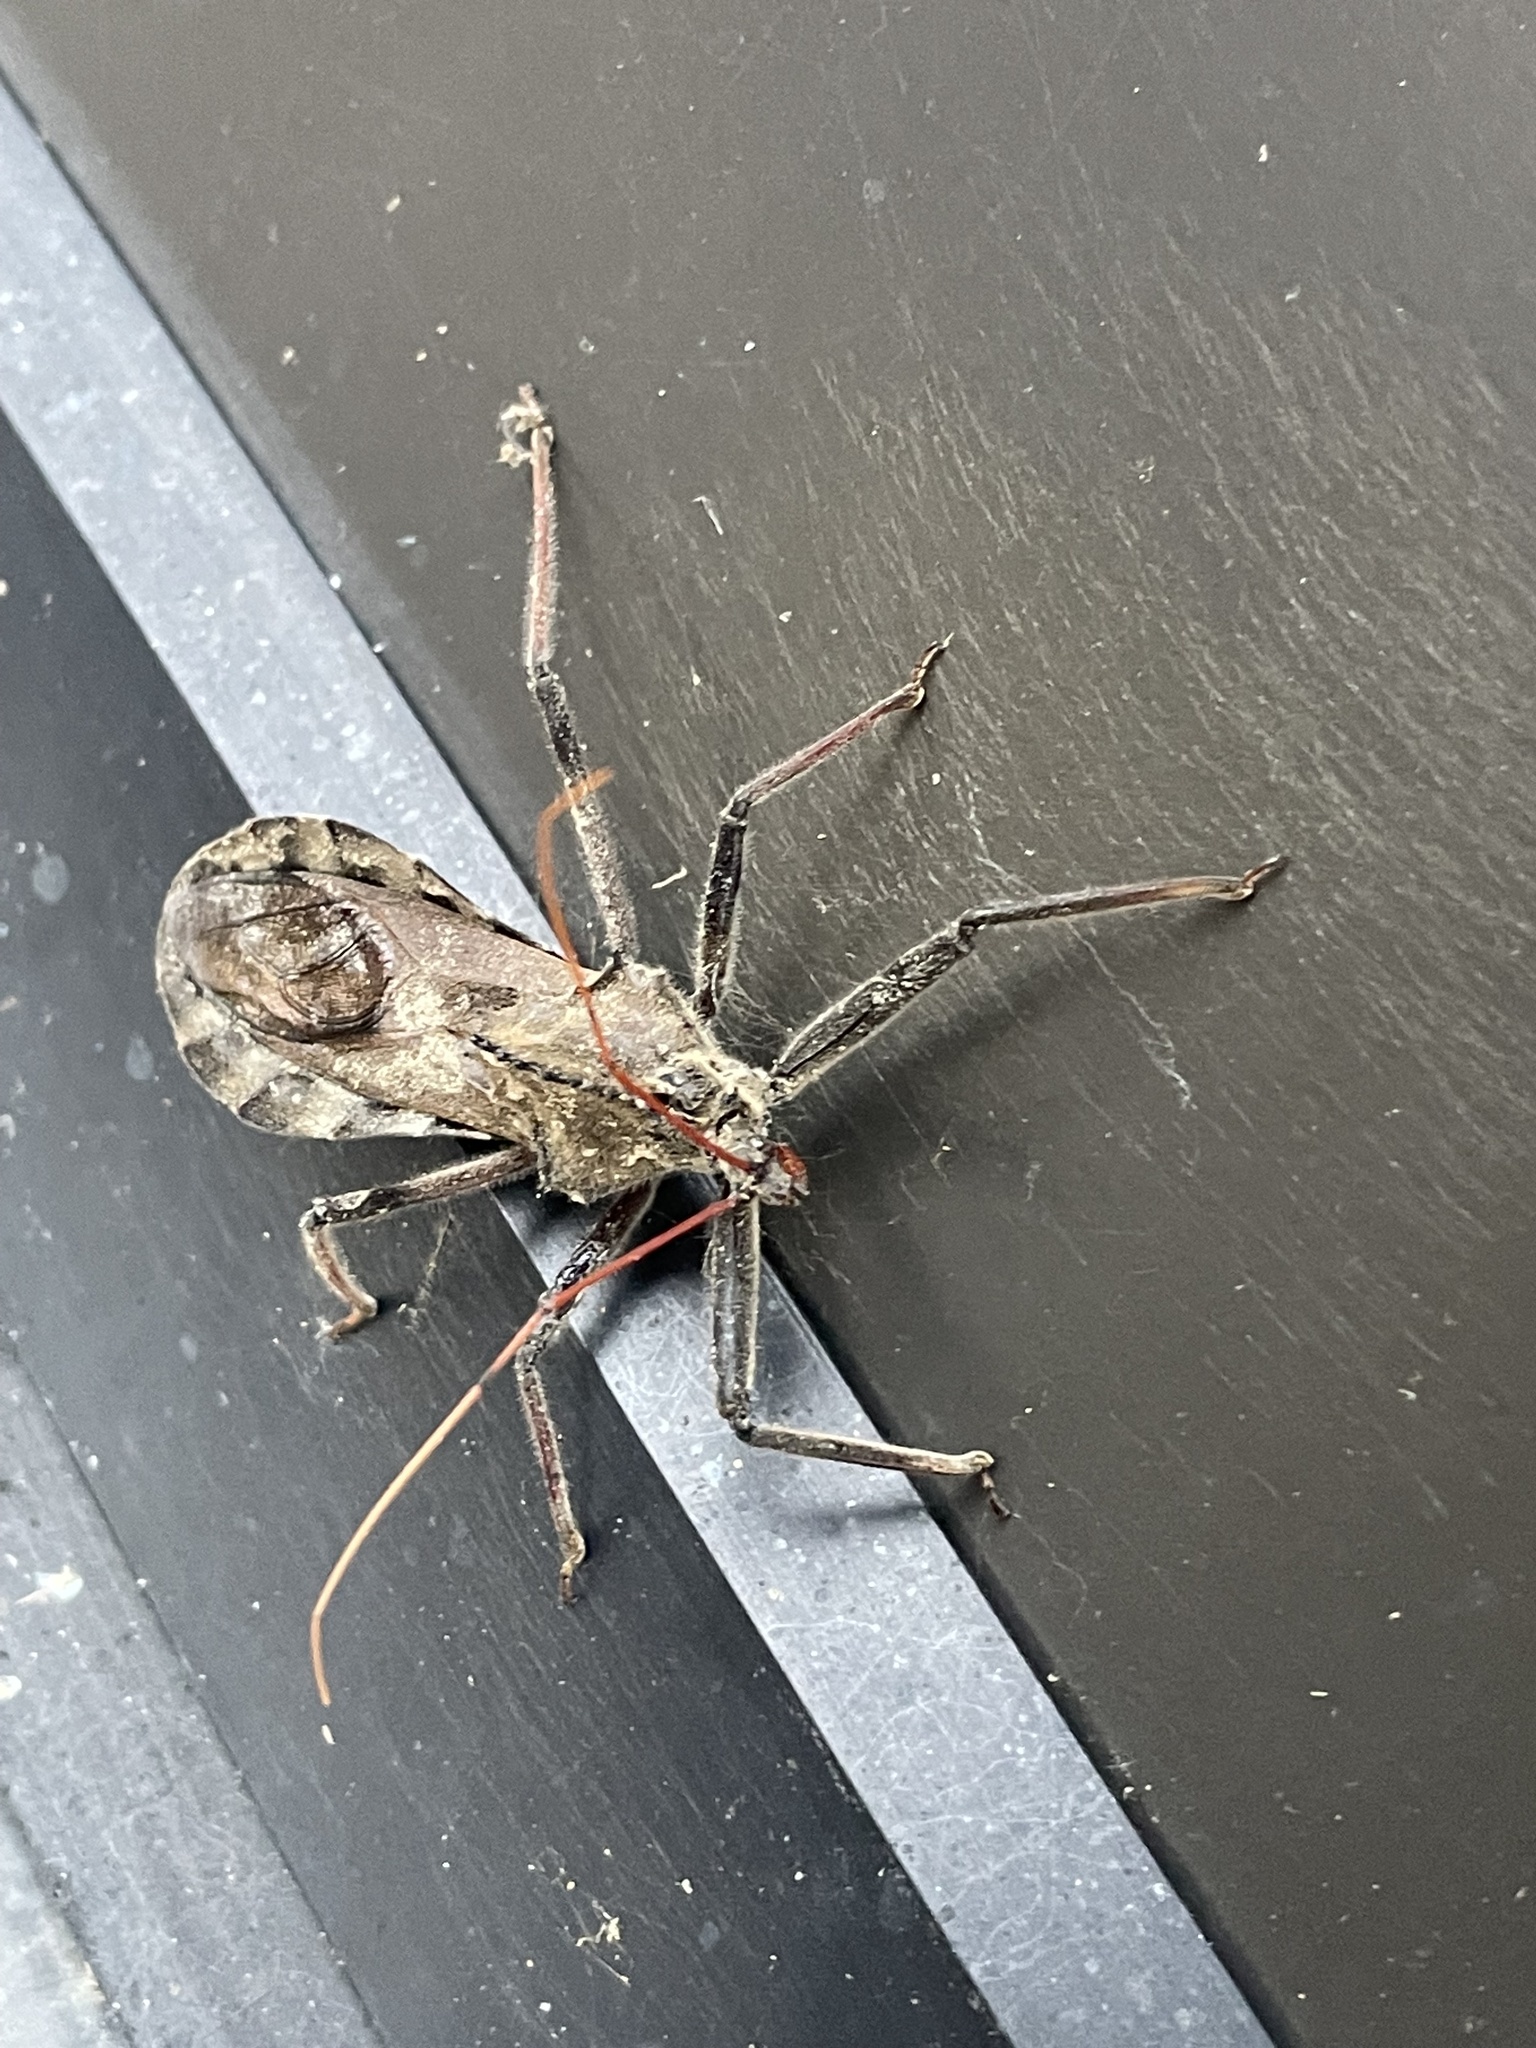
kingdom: Animalia
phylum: Arthropoda
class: Insecta
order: Hemiptera
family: Reduviidae
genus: Arilus
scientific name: Arilus cristatus
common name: North american wheel bug
